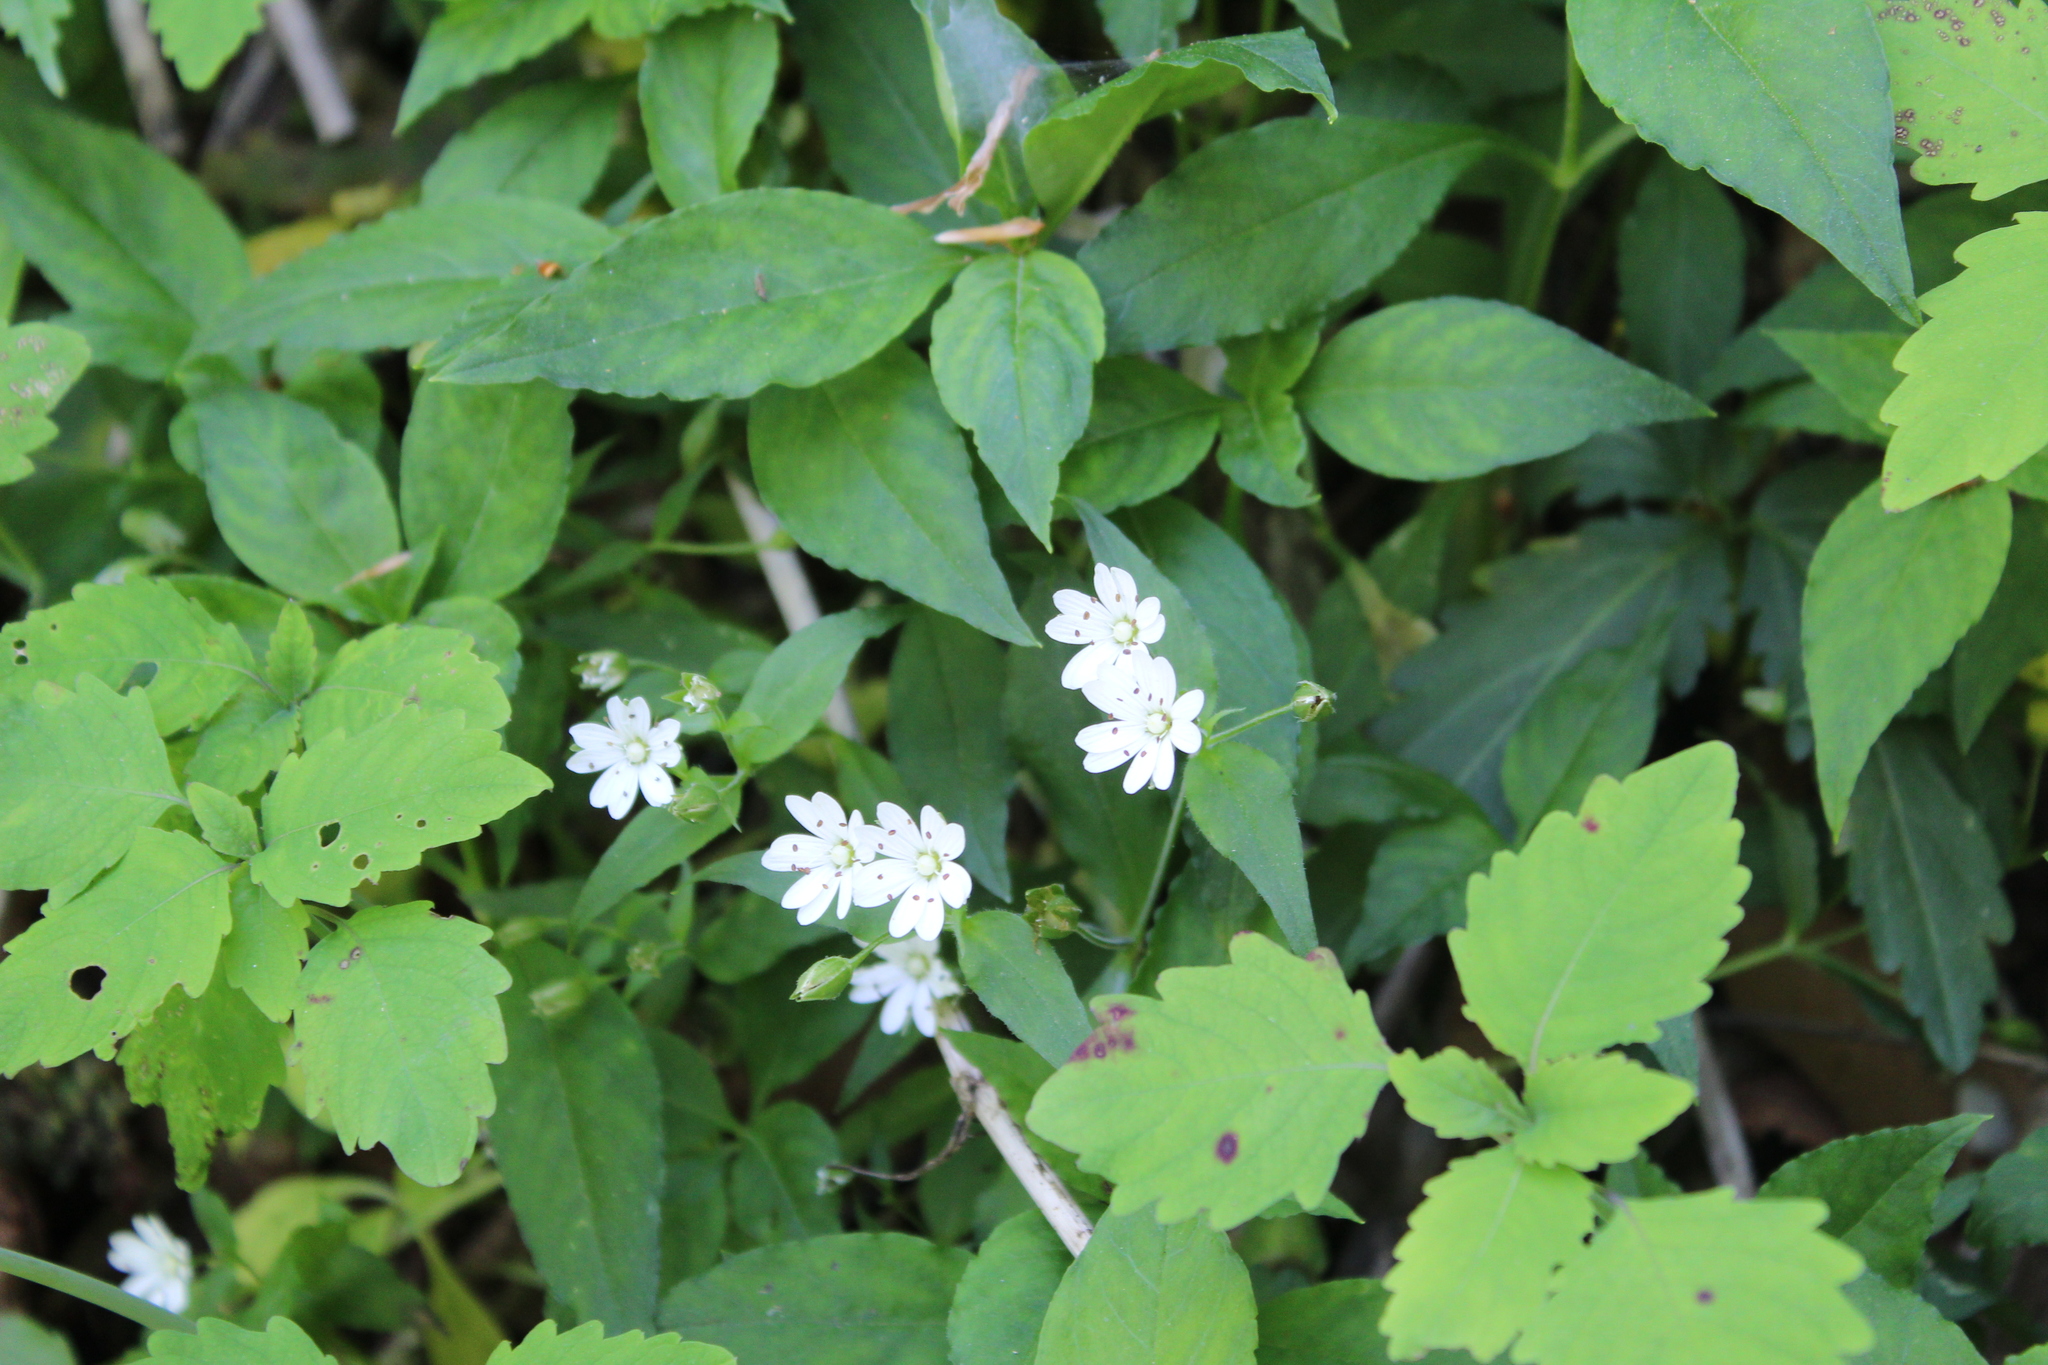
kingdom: Plantae
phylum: Tracheophyta
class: Magnoliopsida
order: Caryophyllales
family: Caryophyllaceae
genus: Stellaria
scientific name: Stellaria pubera
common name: Star chickweed
